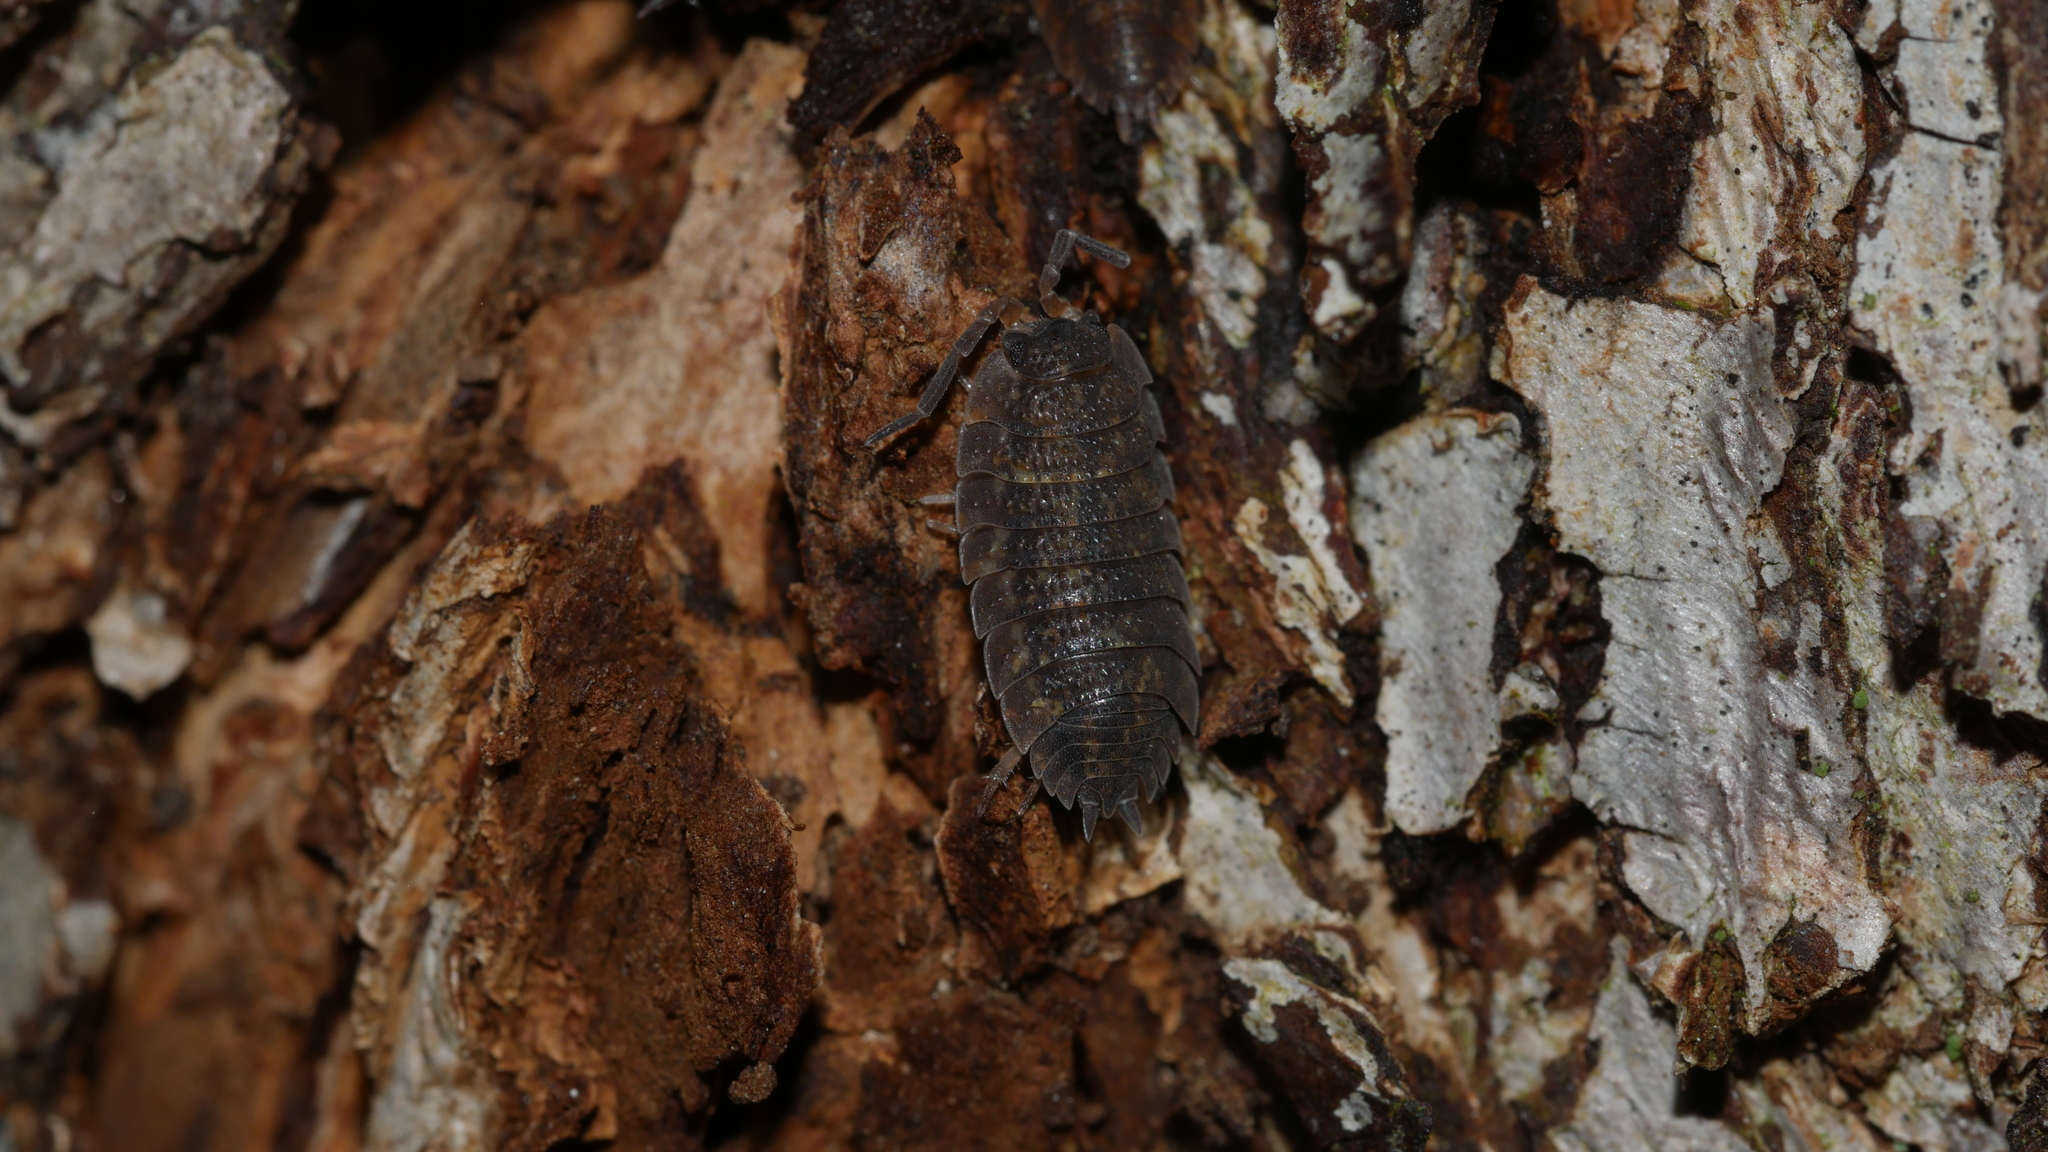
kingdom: Animalia
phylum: Arthropoda
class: Malacostraca
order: Isopoda
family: Porcellionidae
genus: Porcellio
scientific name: Porcellio scaber
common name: Common rough woodlouse
